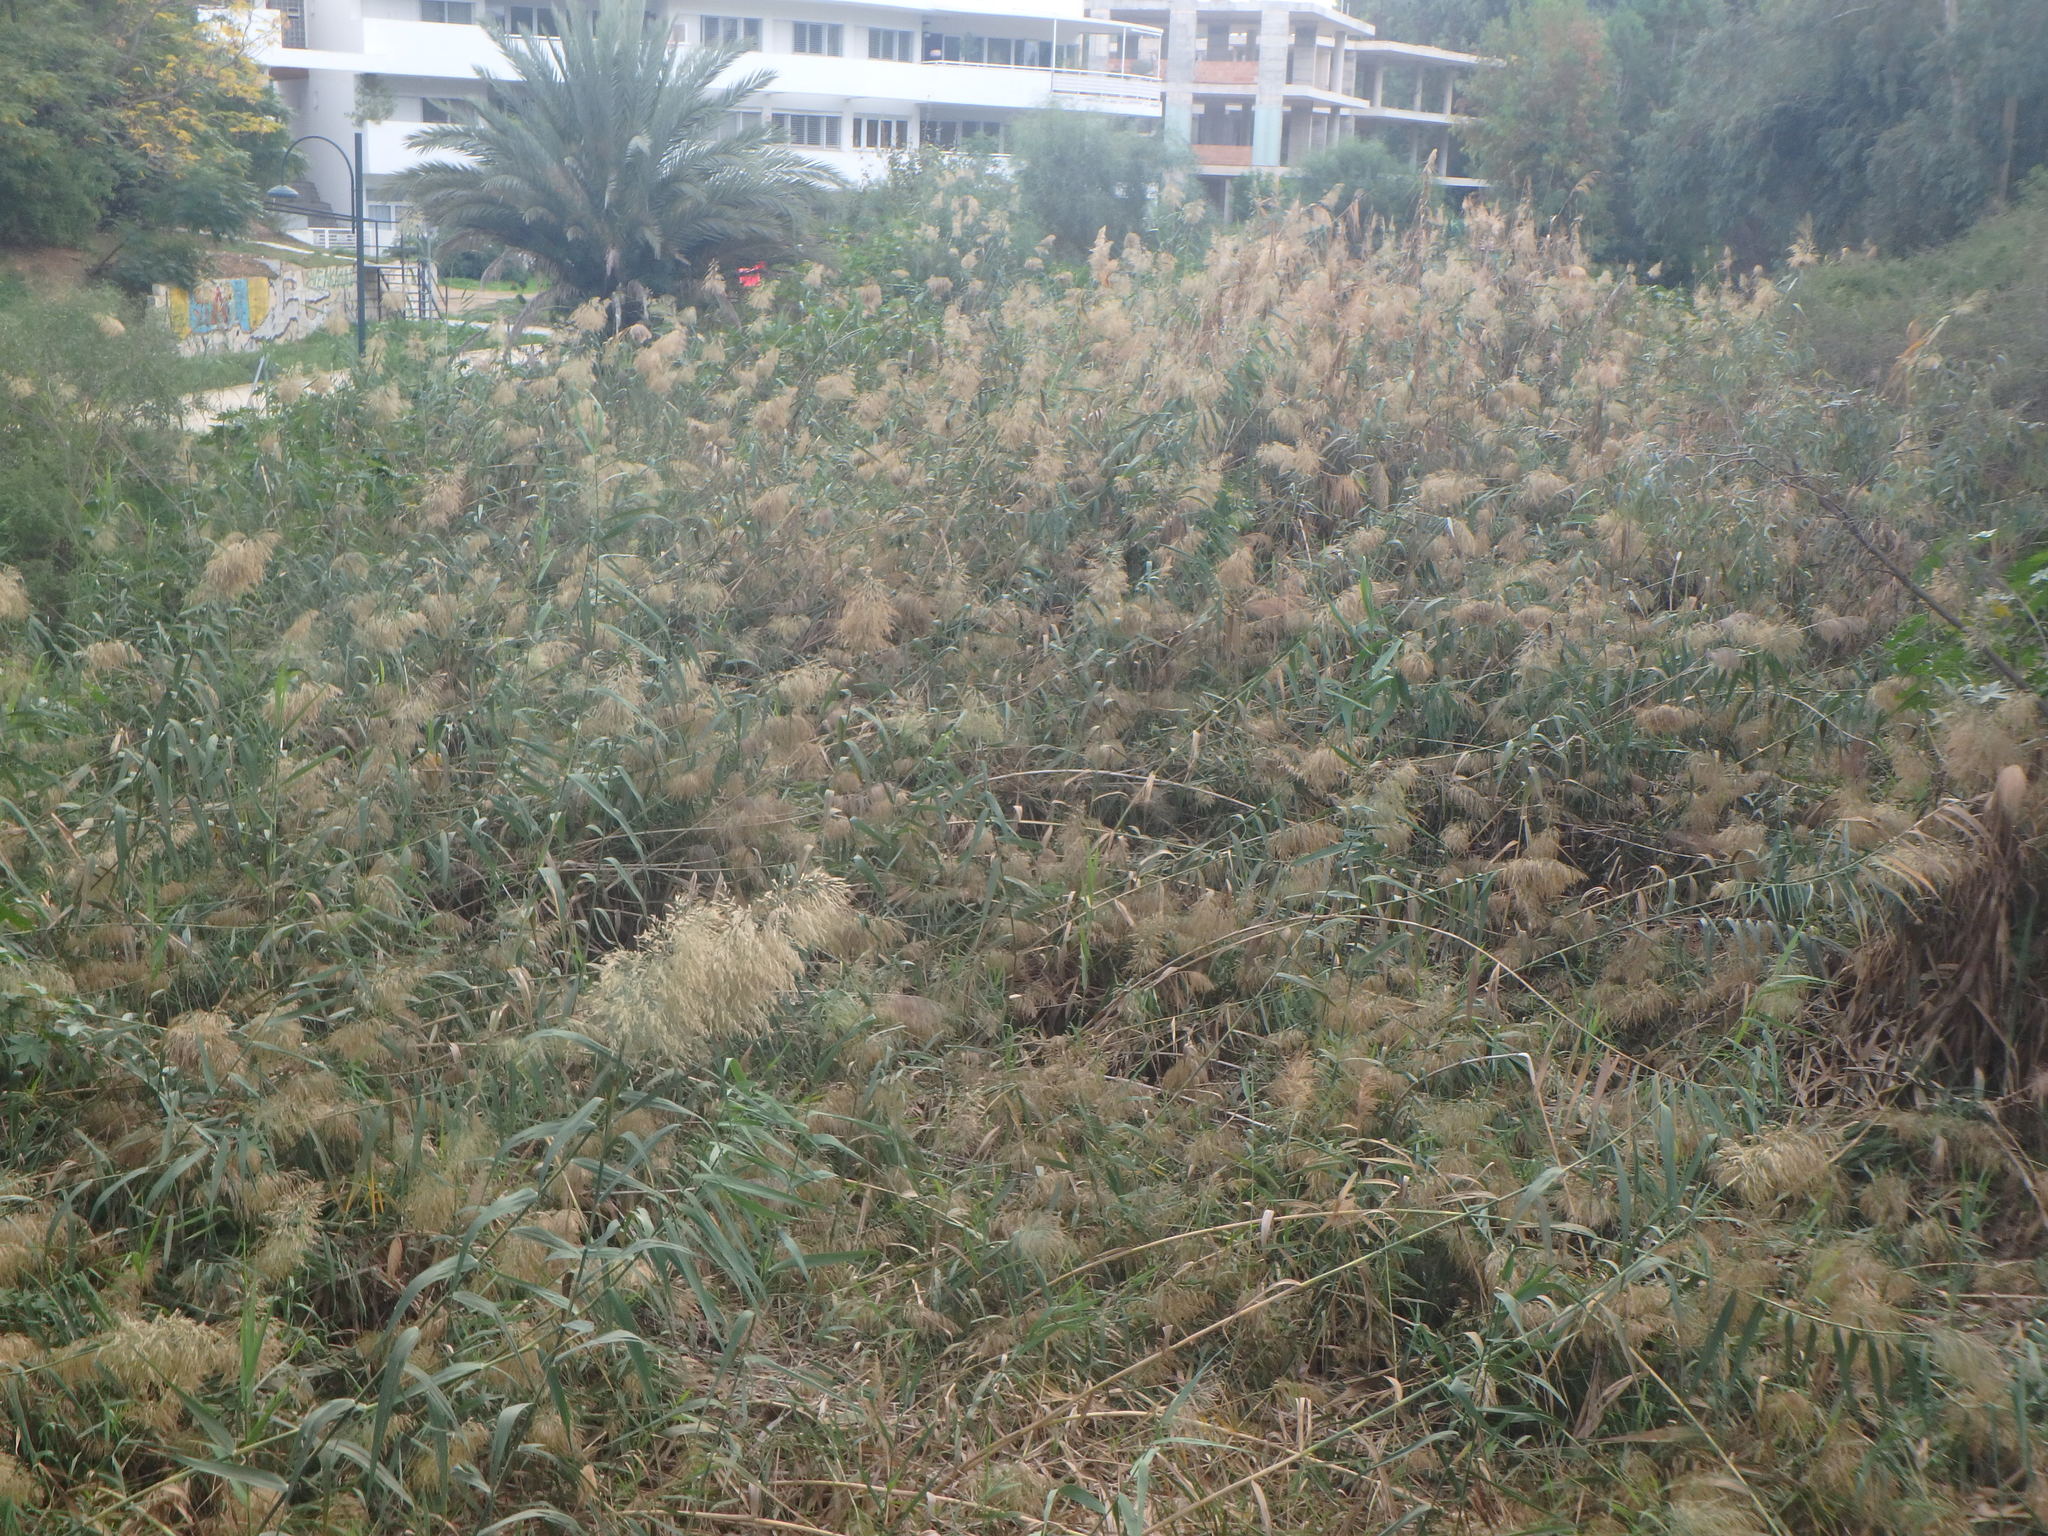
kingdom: Plantae
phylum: Tracheophyta
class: Liliopsida
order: Poales
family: Poaceae
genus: Arundo
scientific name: Arundo donax
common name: Giant reed
